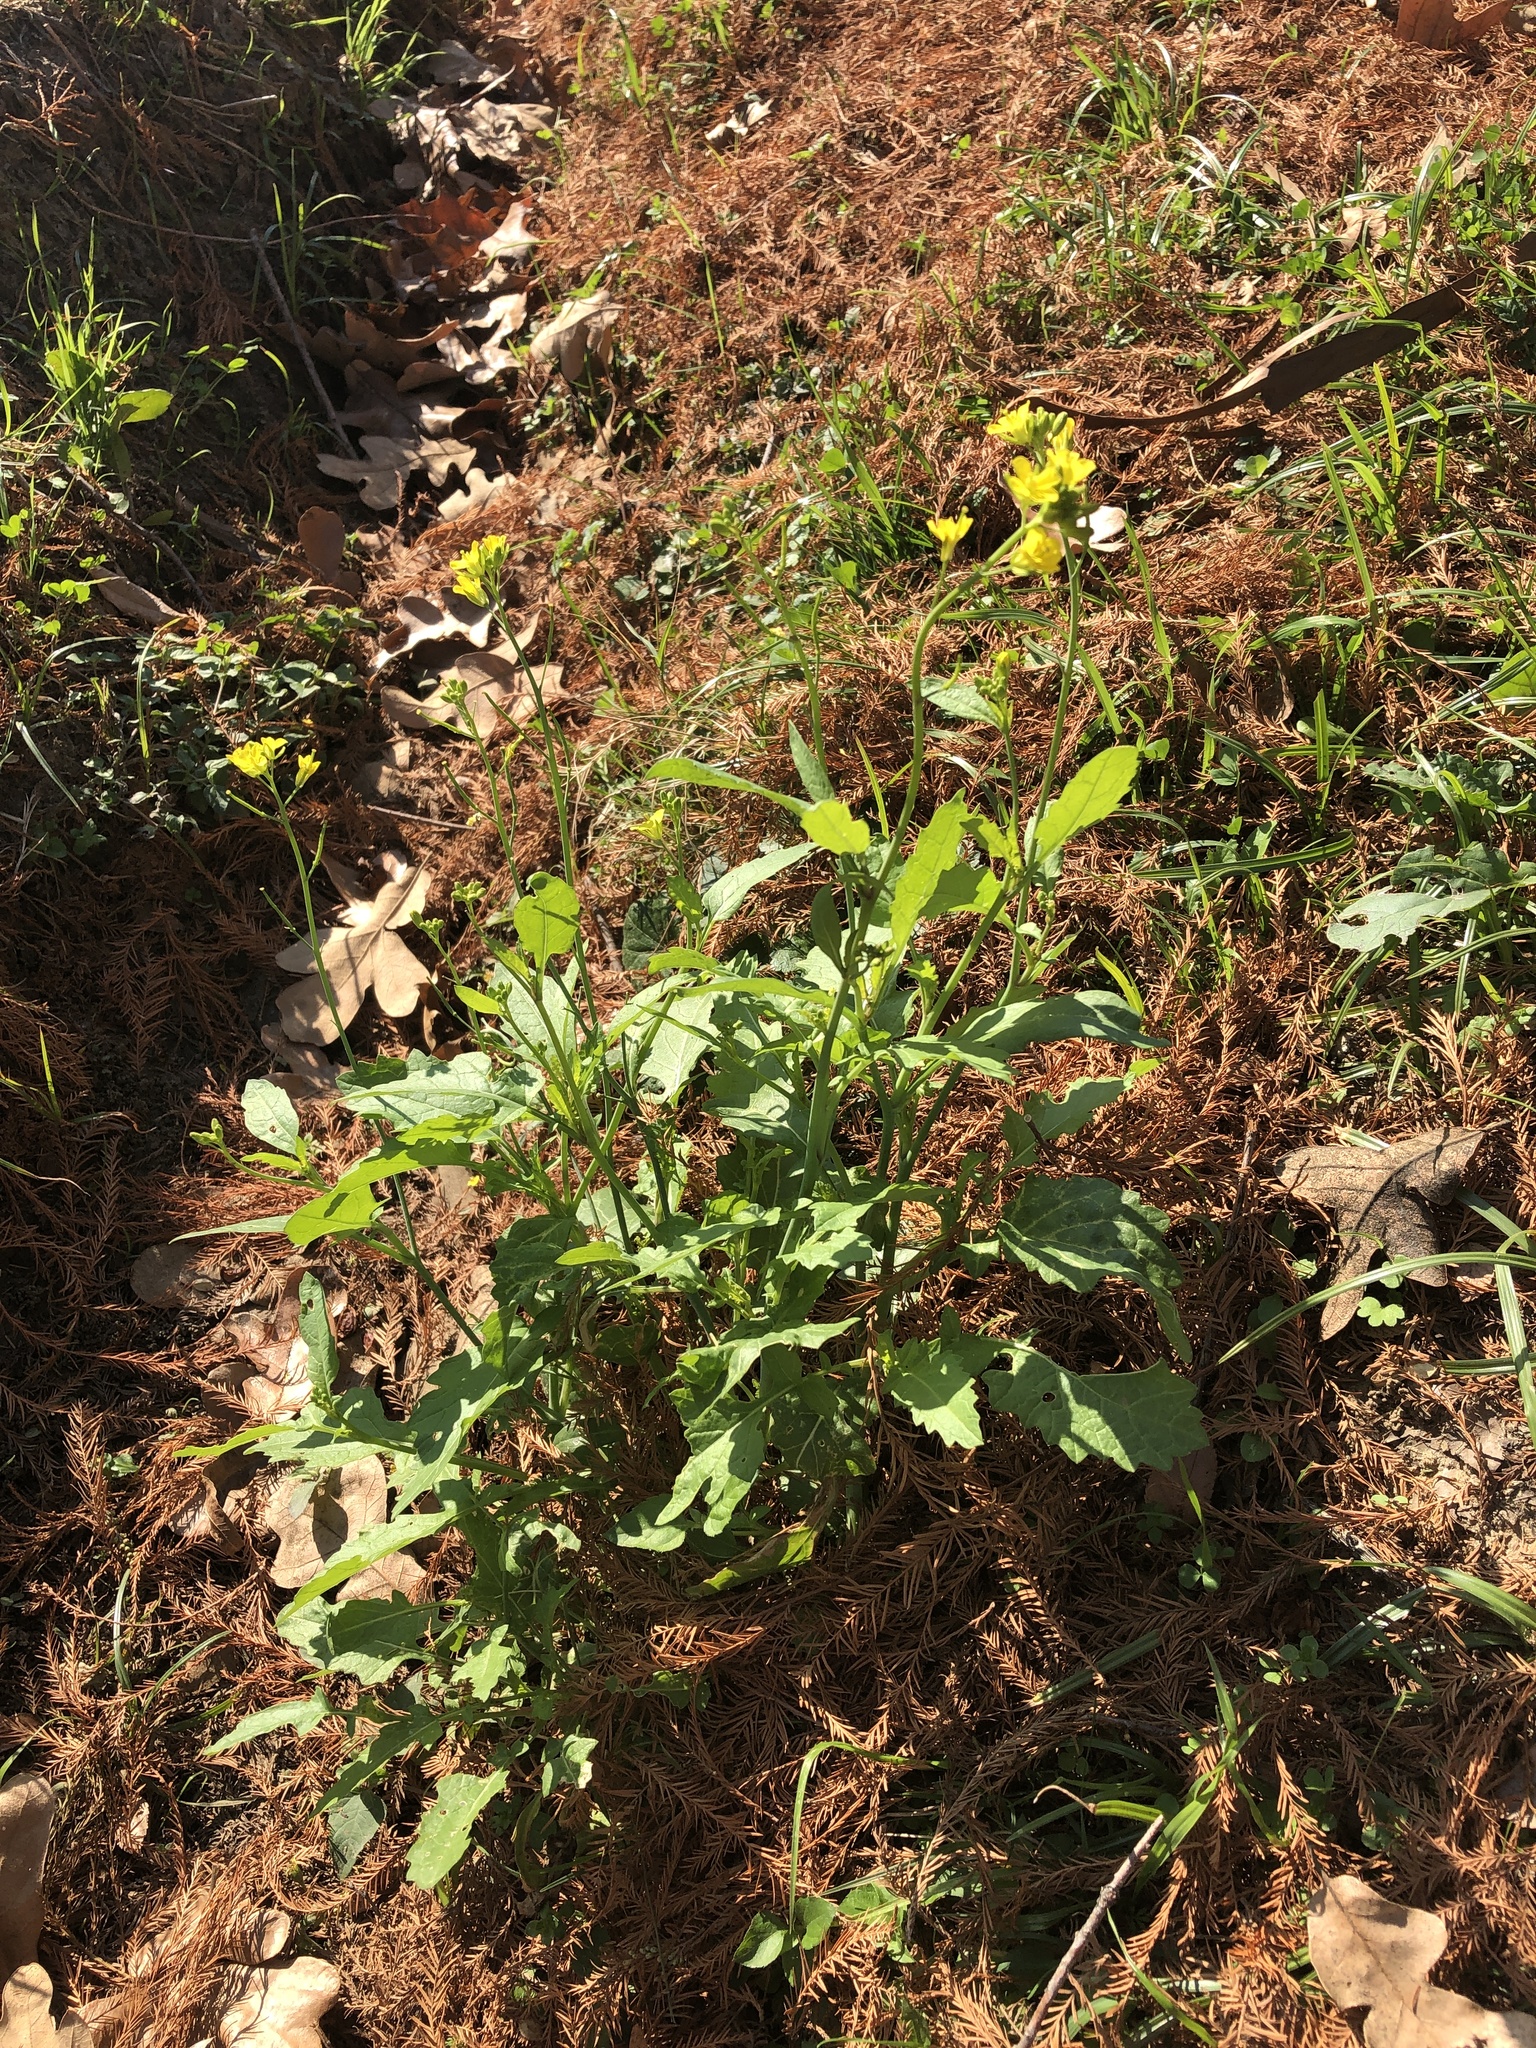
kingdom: Plantae
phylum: Tracheophyta
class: Magnoliopsida
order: Brassicales
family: Brassicaceae
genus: Brassica
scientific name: Brassica nigra
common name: Black mustard
